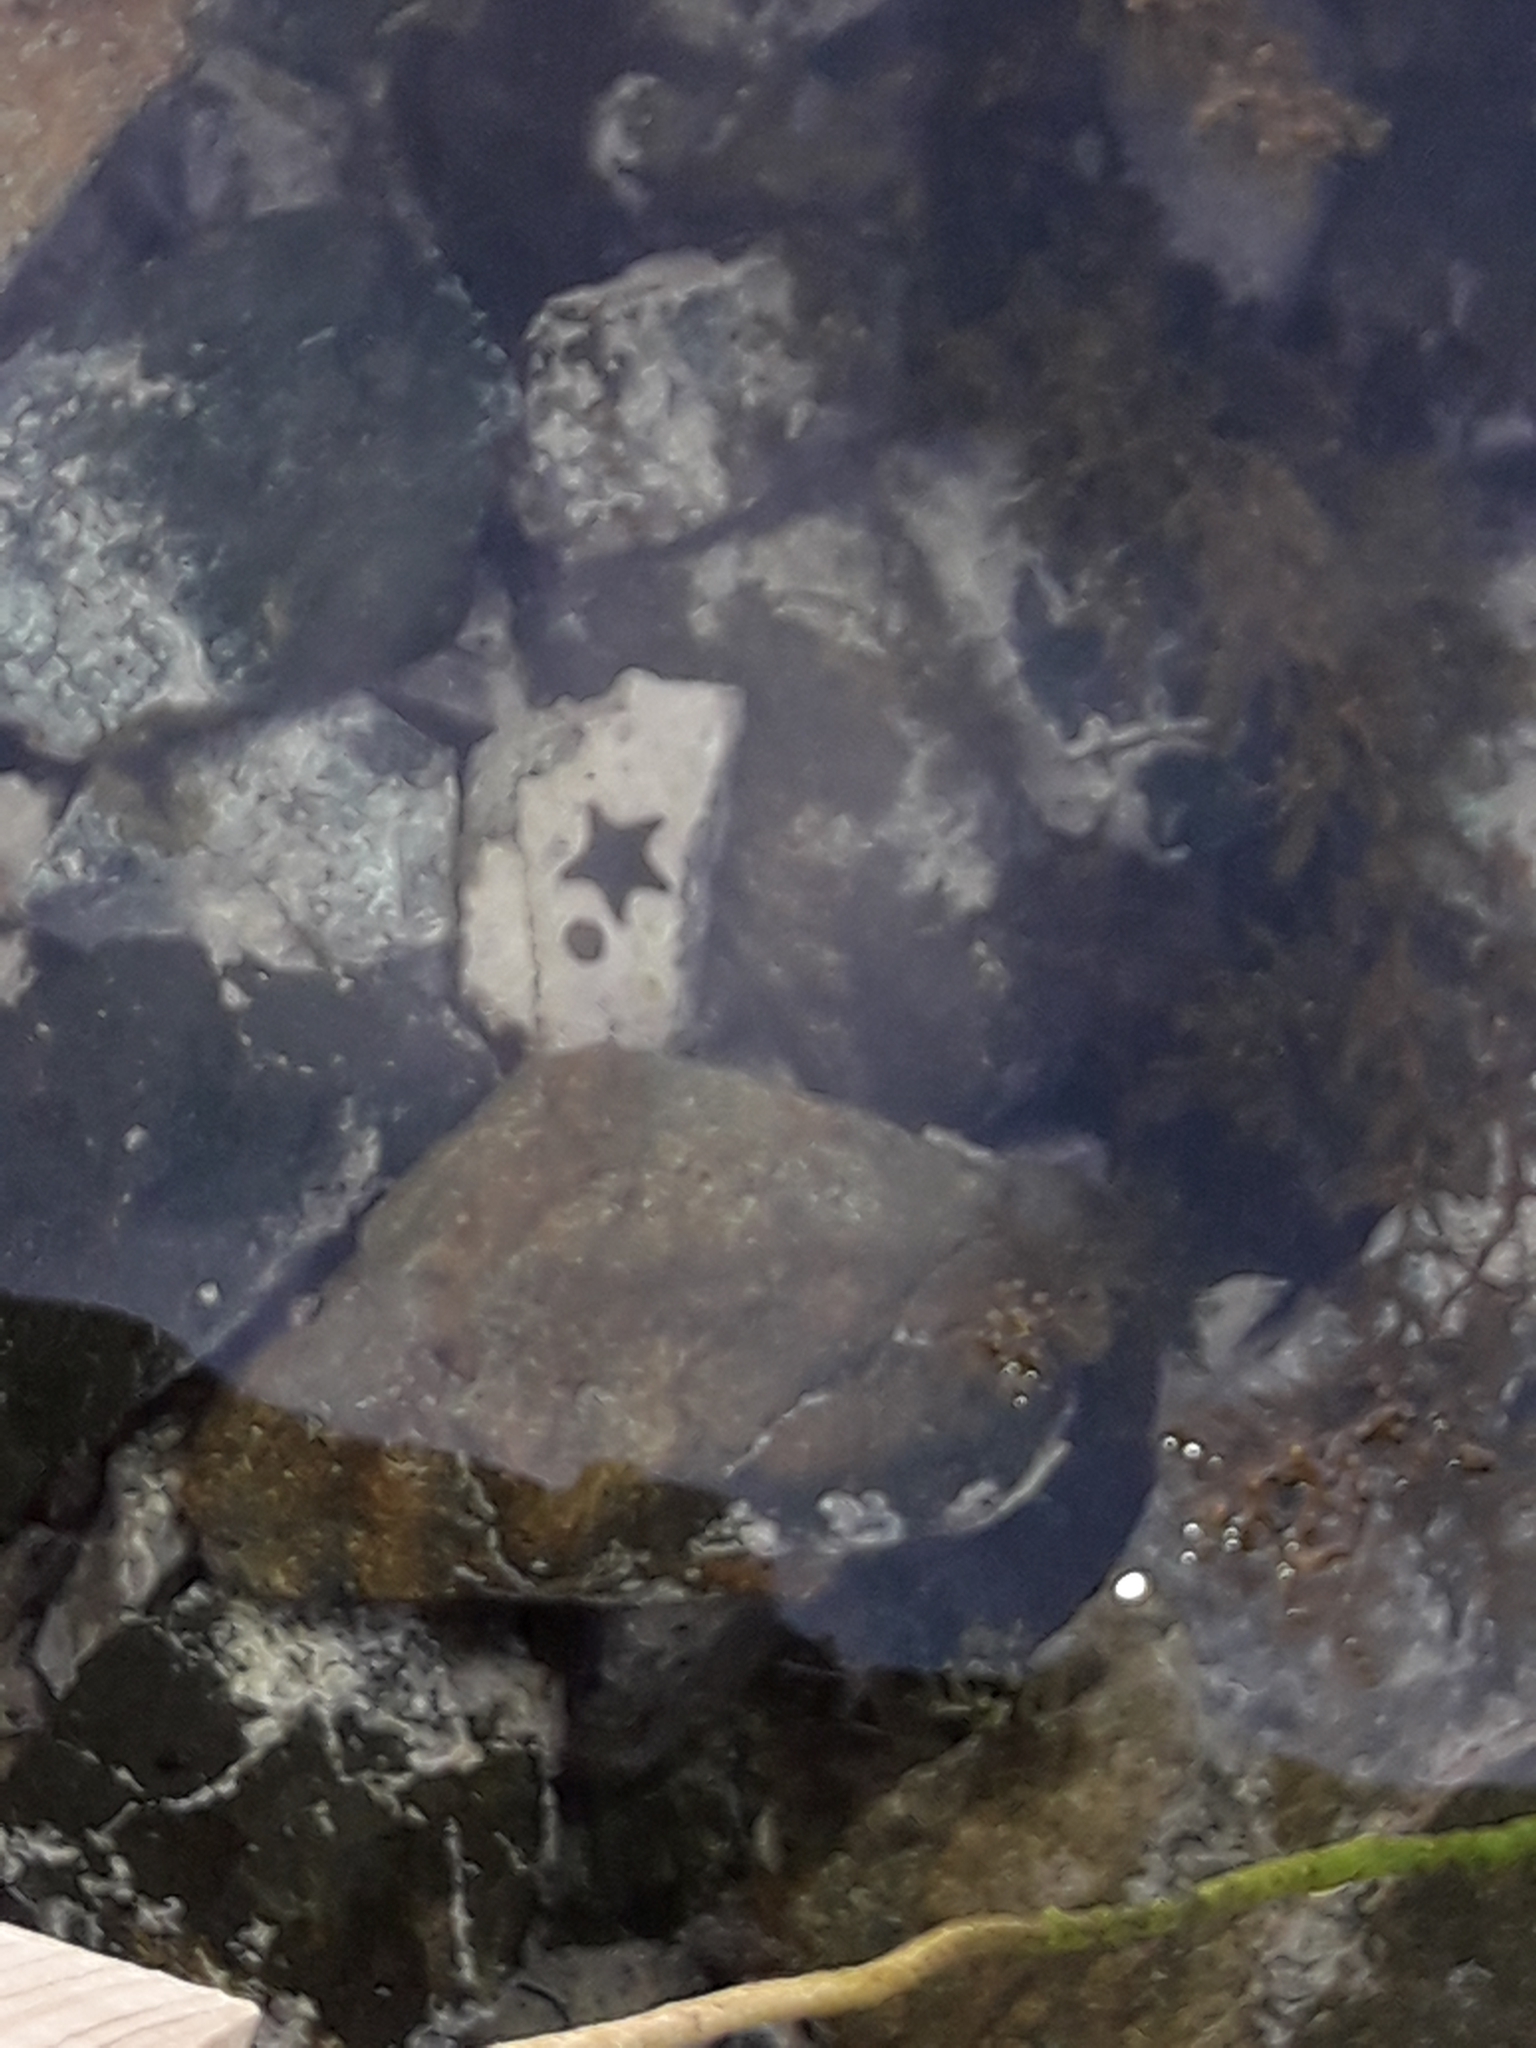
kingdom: Animalia
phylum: Echinodermata
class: Asteroidea
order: Valvatida
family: Asterinidae
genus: Patiriella
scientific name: Patiriella regularis
